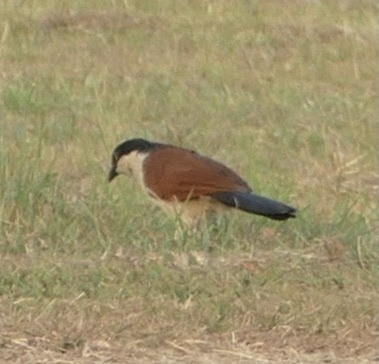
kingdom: Animalia
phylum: Chordata
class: Aves
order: Cuculiformes
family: Cuculidae
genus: Centropus
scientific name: Centropus senegalensis
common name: Senegal coucal
